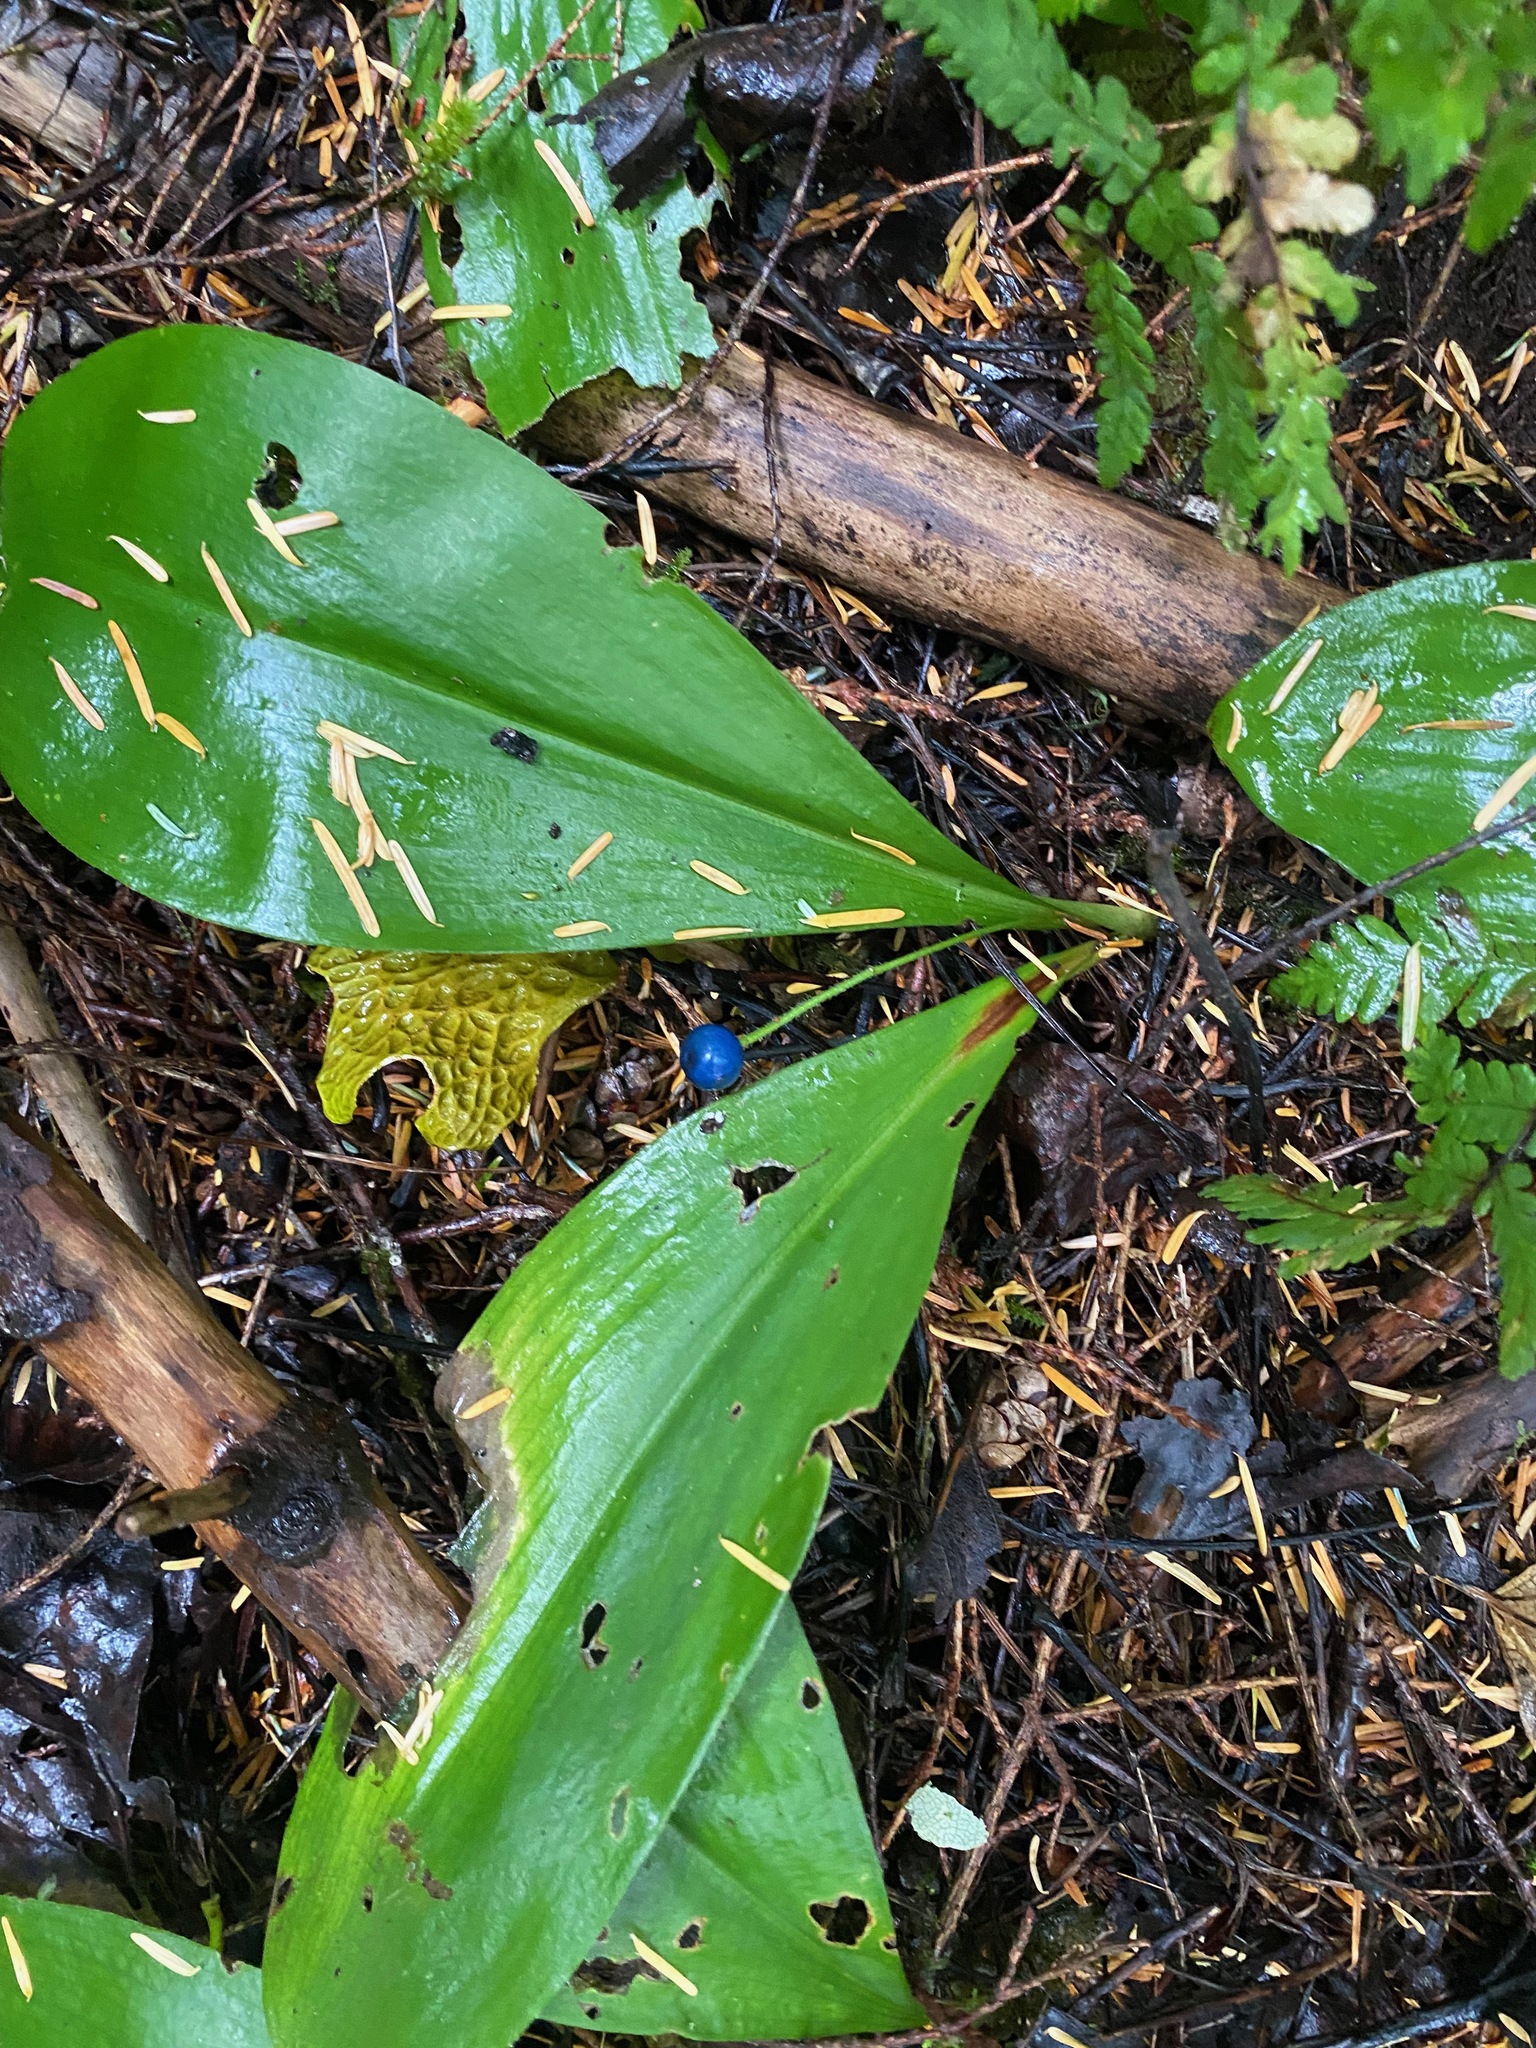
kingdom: Plantae
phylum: Tracheophyta
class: Liliopsida
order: Liliales
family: Liliaceae
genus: Clintonia
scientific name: Clintonia uniflora
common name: Queen's cup
